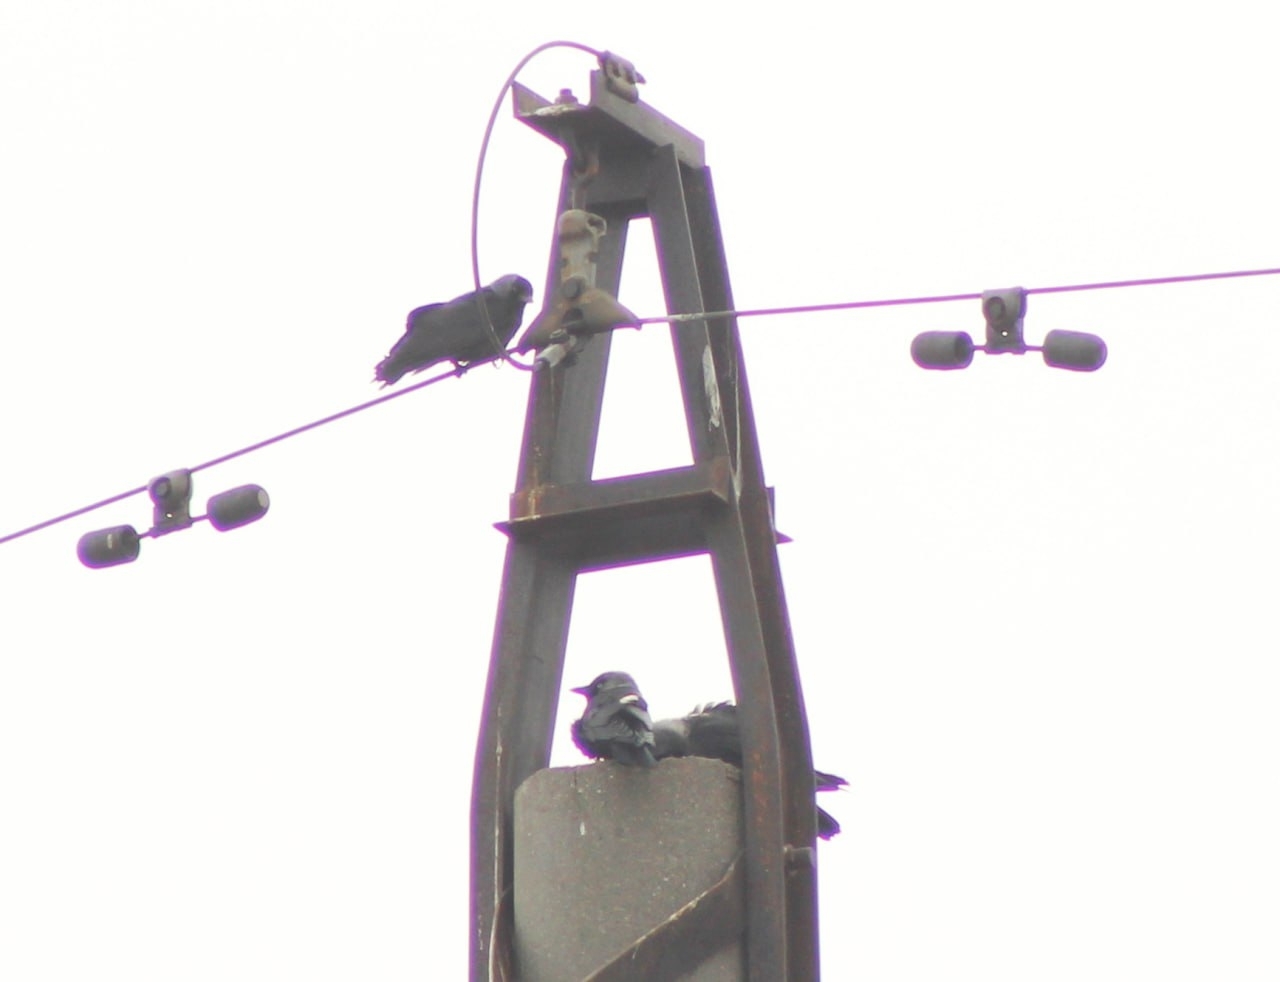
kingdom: Animalia
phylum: Chordata
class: Aves
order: Passeriformes
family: Corvidae
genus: Coloeus
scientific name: Coloeus monedula
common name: Western jackdaw
